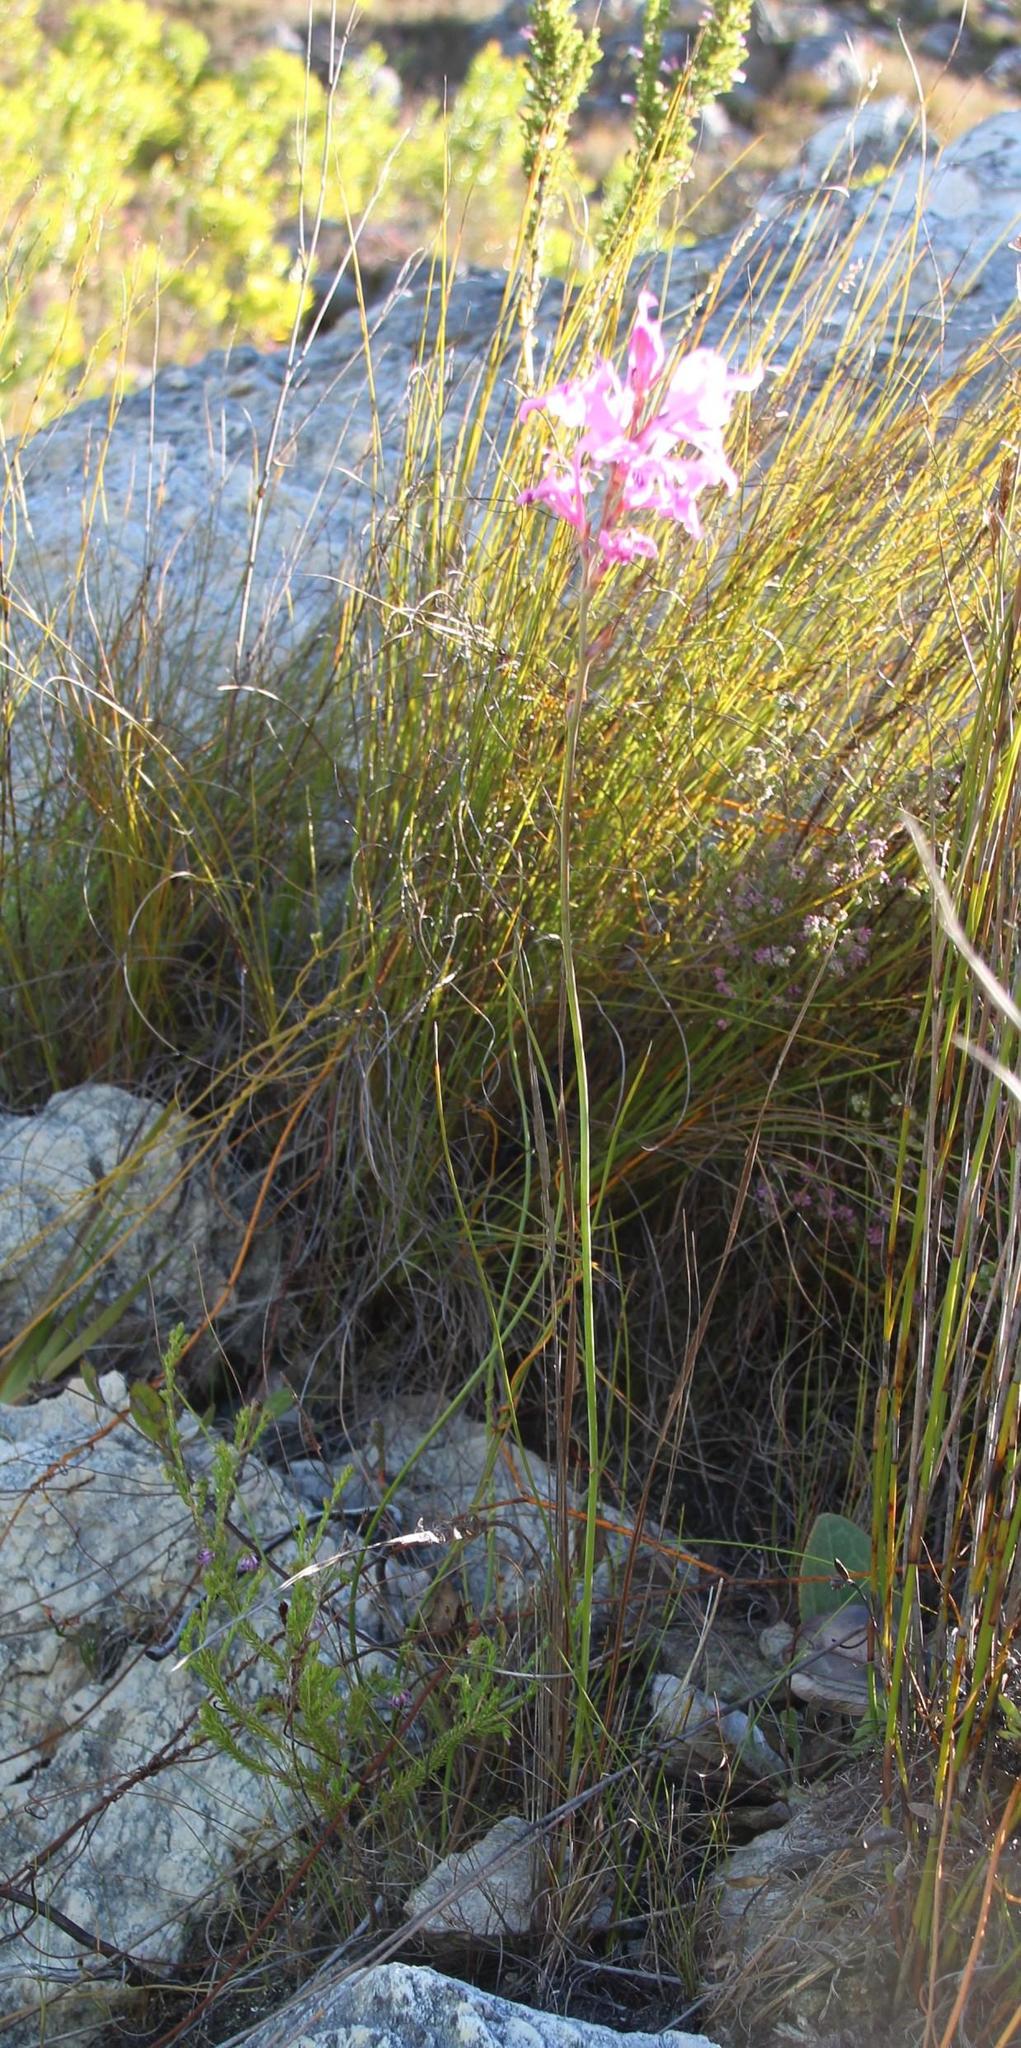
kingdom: Plantae
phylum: Tracheophyta
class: Liliopsida
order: Asparagales
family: Iridaceae
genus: Tritoniopsis
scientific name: Tritoniopsis lata
